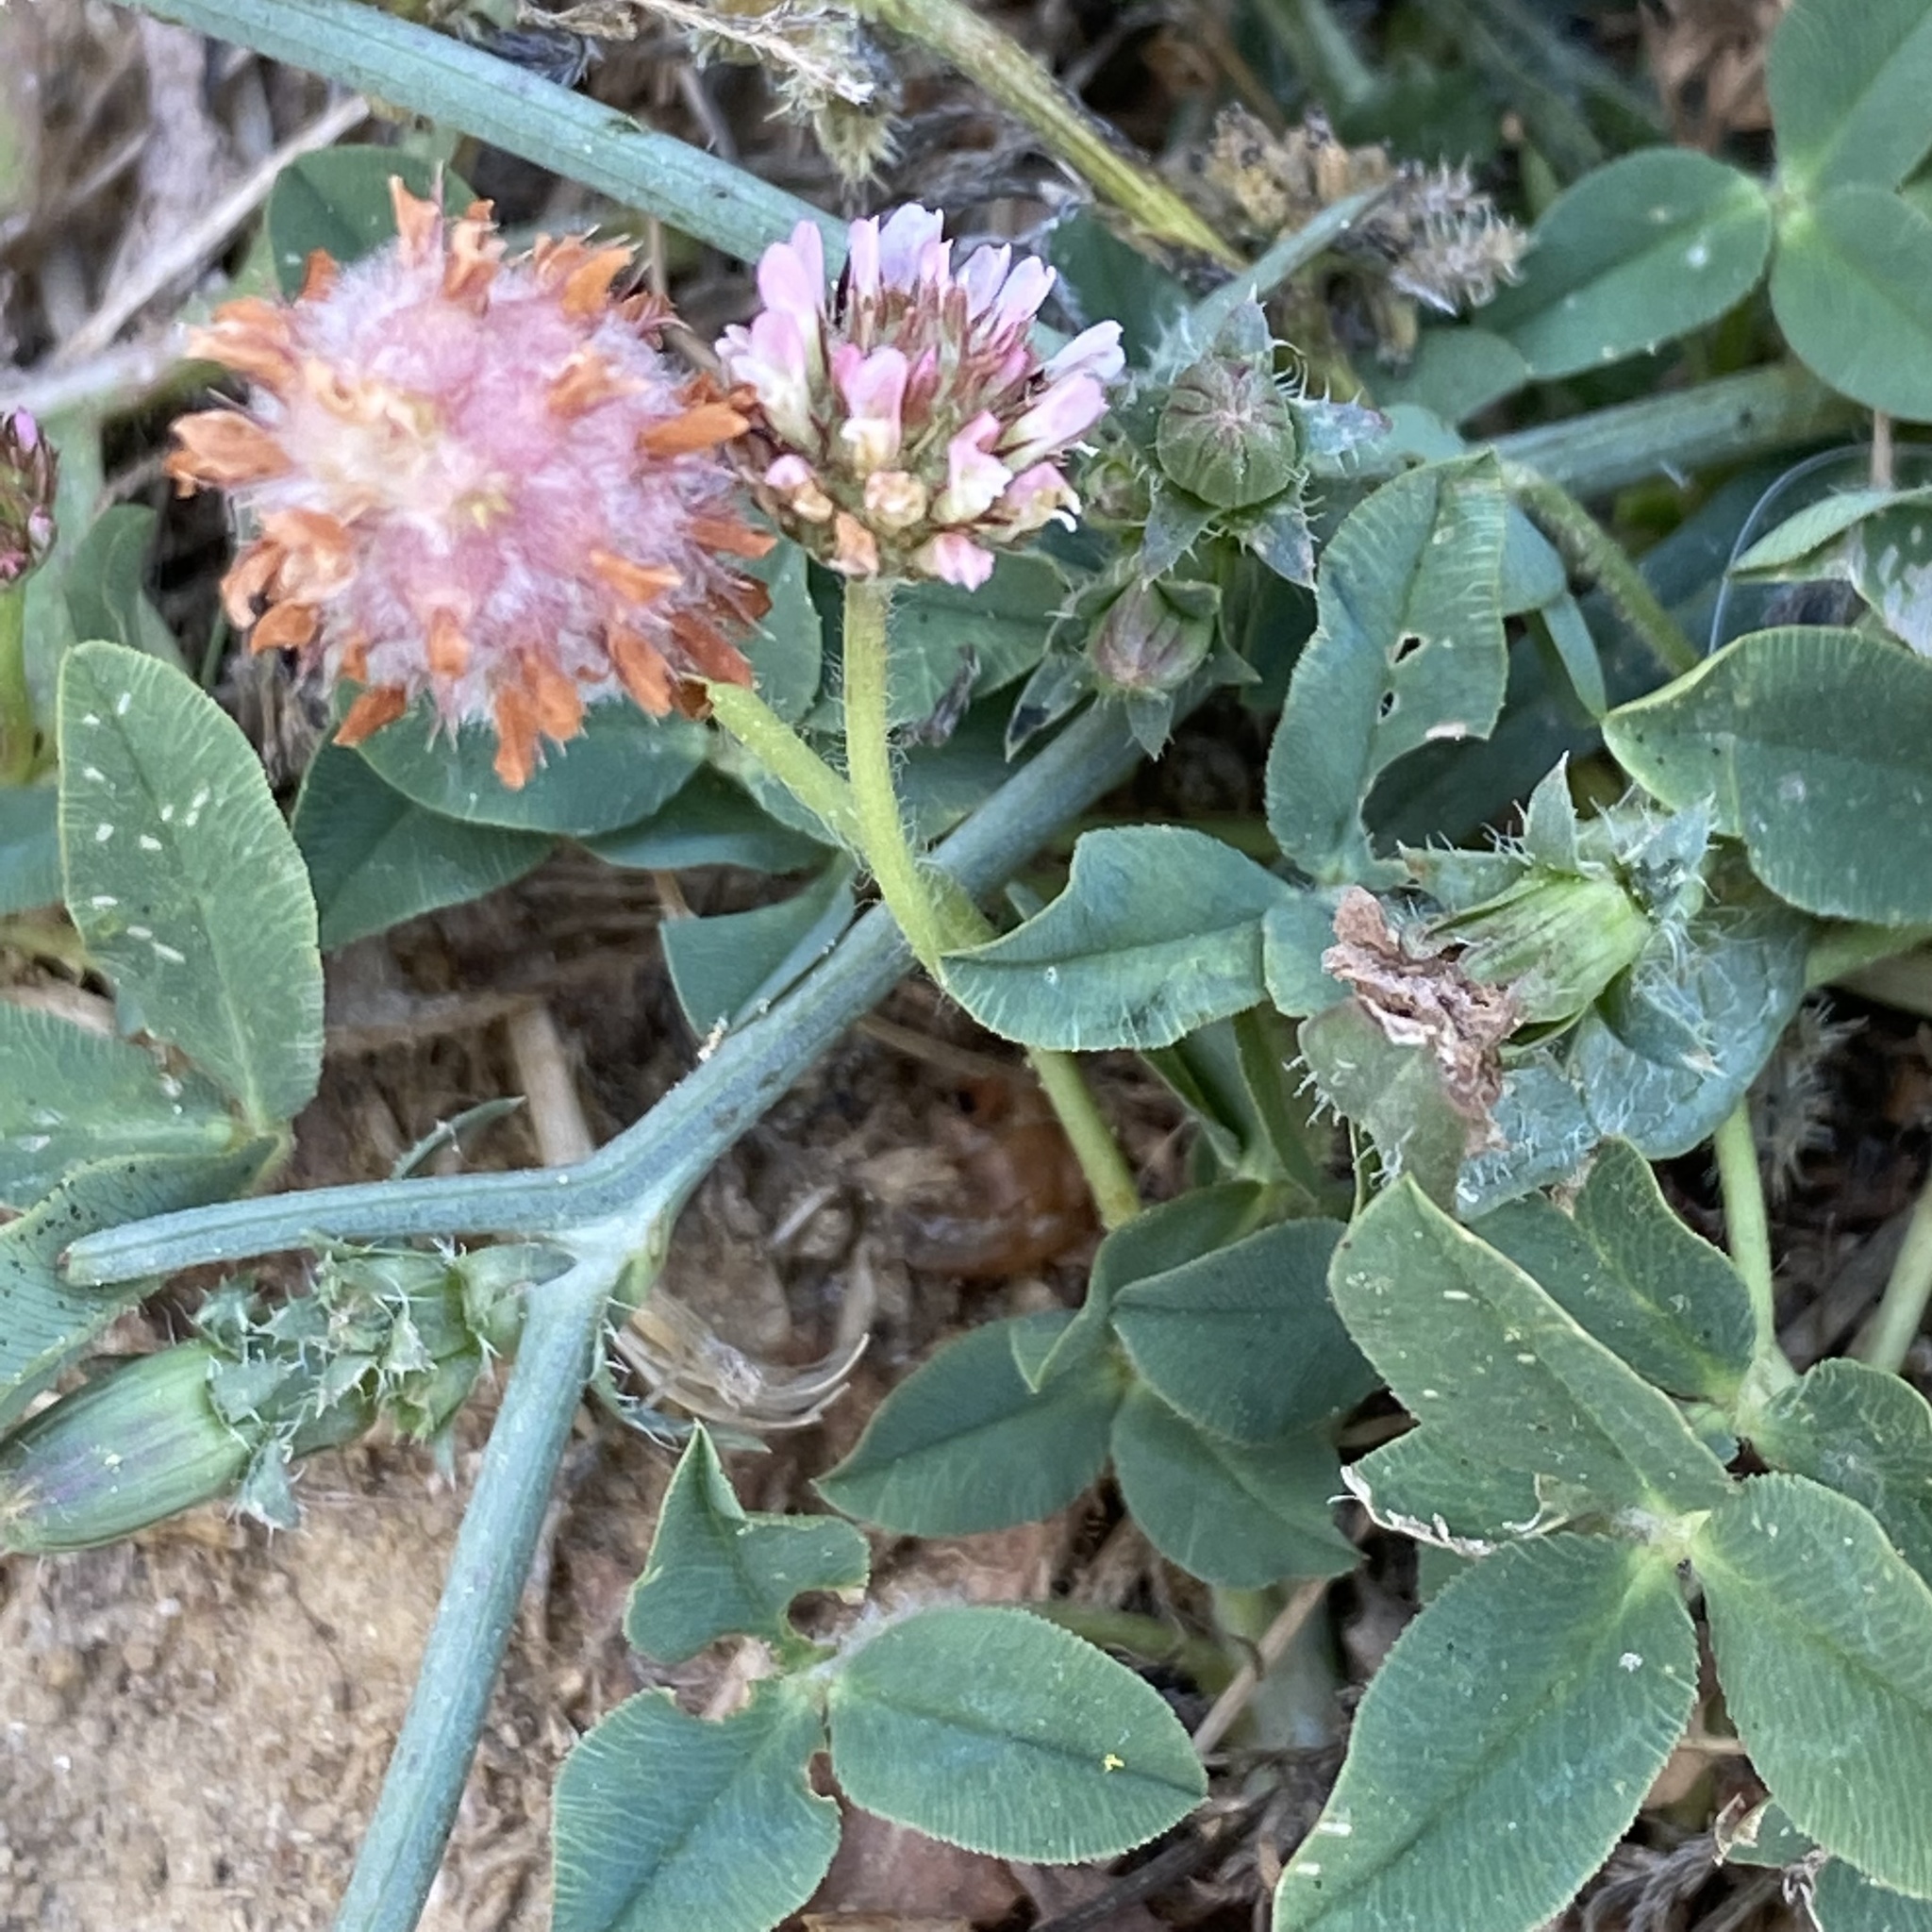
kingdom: Plantae
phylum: Tracheophyta
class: Magnoliopsida
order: Fabales
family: Fabaceae
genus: Trifolium
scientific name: Trifolium fragiferum
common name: Strawberry clover
